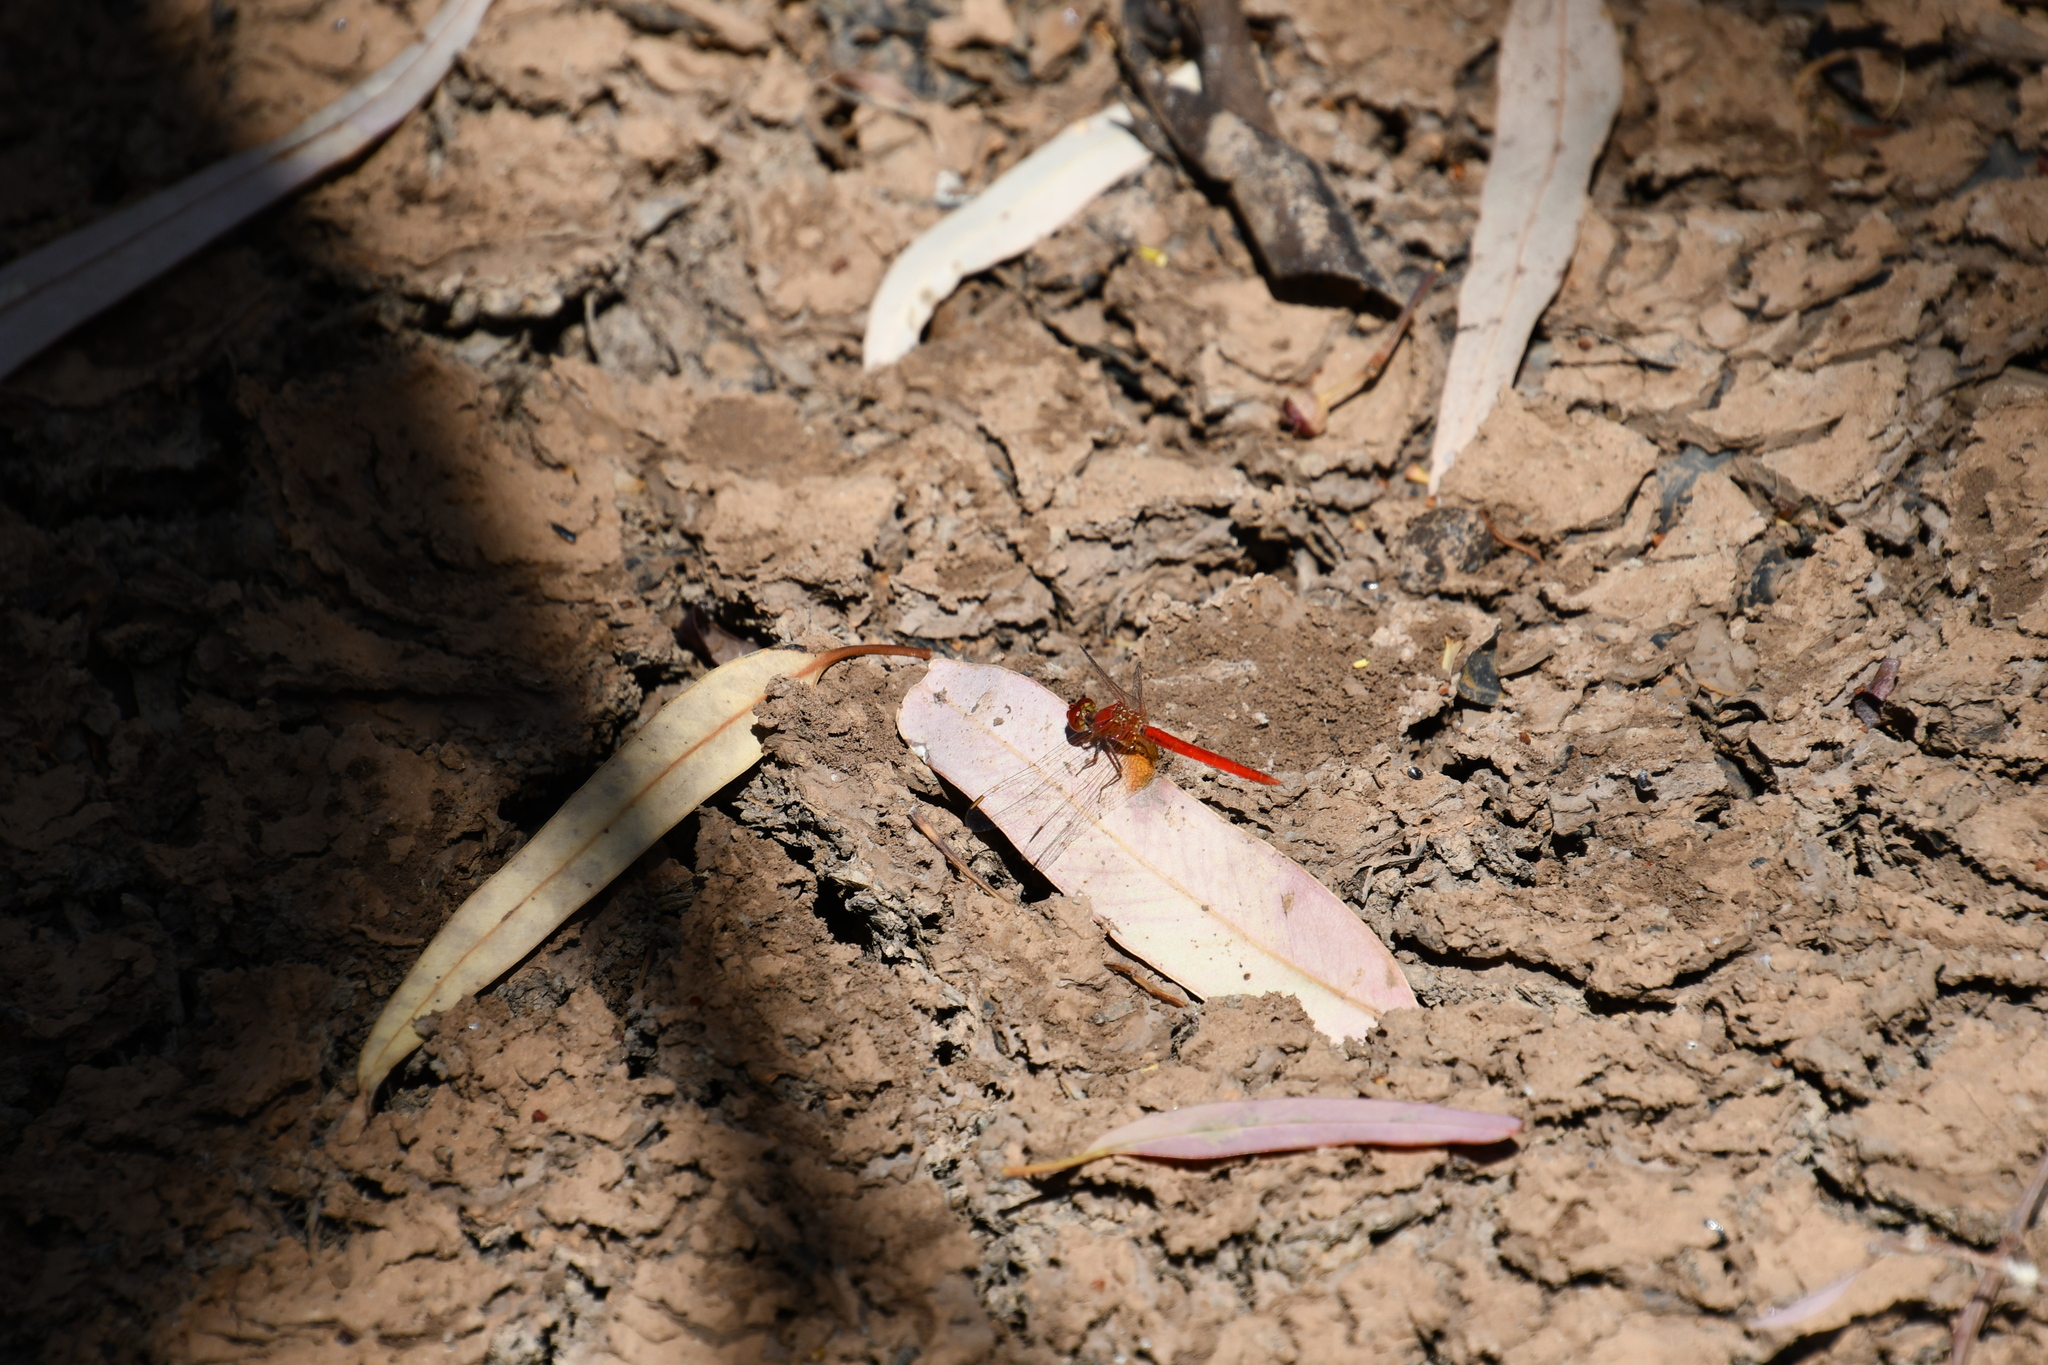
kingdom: Animalia
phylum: Arthropoda
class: Insecta
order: Odonata
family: Libellulidae
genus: Diplacodes
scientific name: Diplacodes haematodes
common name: Scarlet percher
